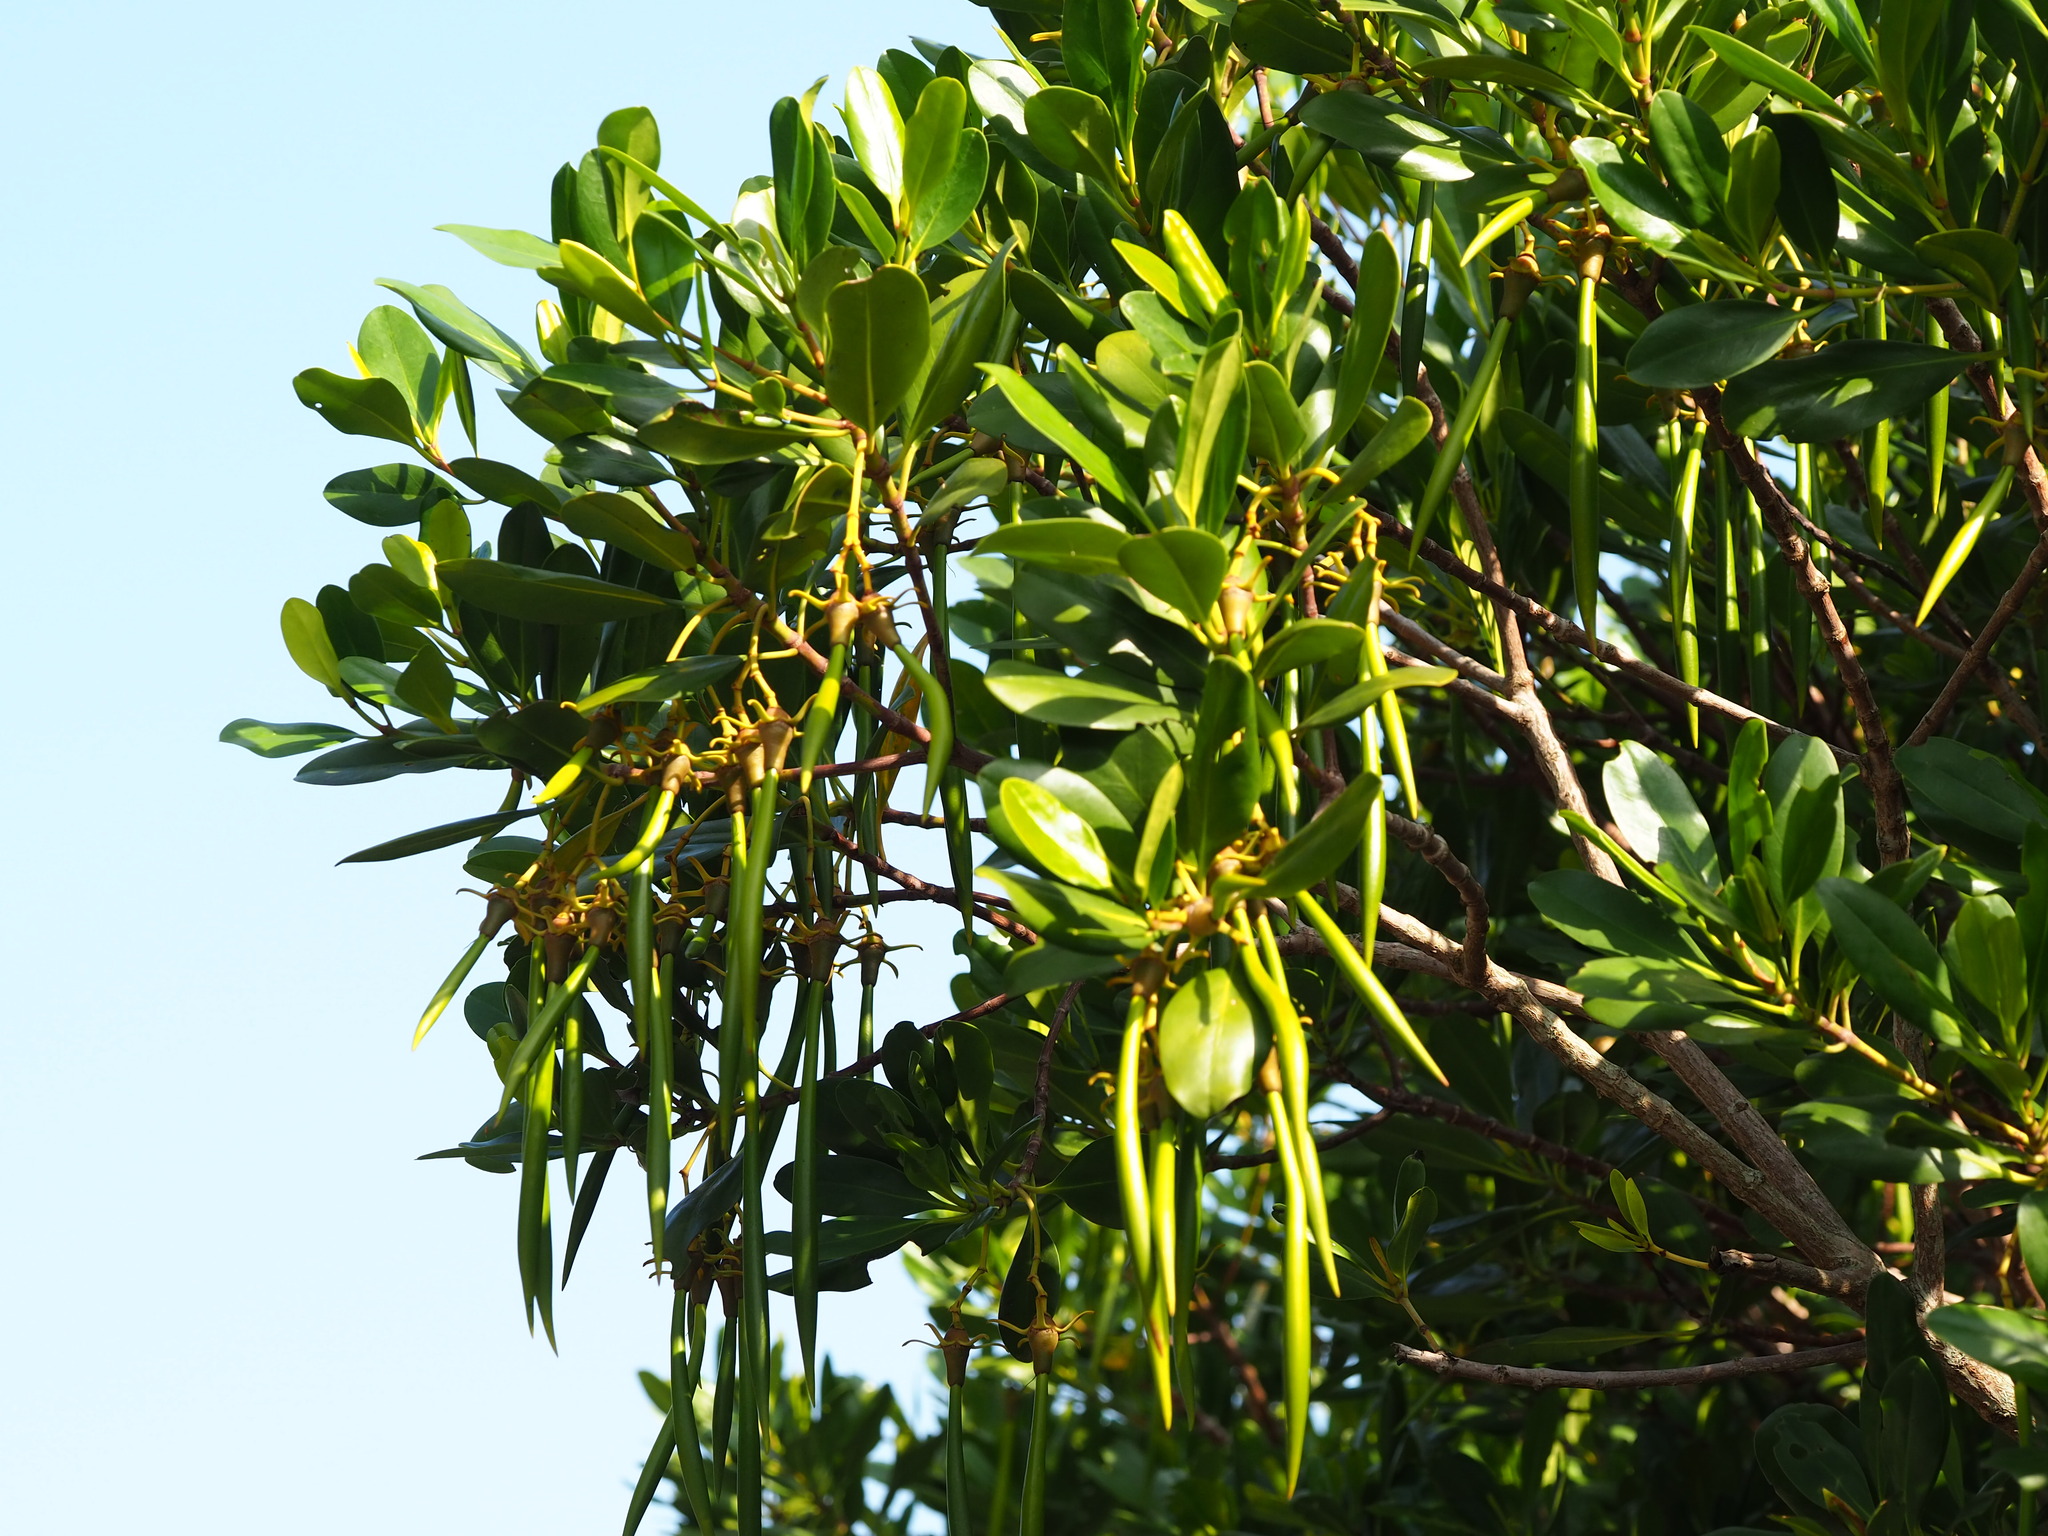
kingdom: Plantae
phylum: Tracheophyta
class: Magnoliopsida
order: Malpighiales
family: Rhizophoraceae
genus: Kandelia
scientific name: Kandelia obovata
